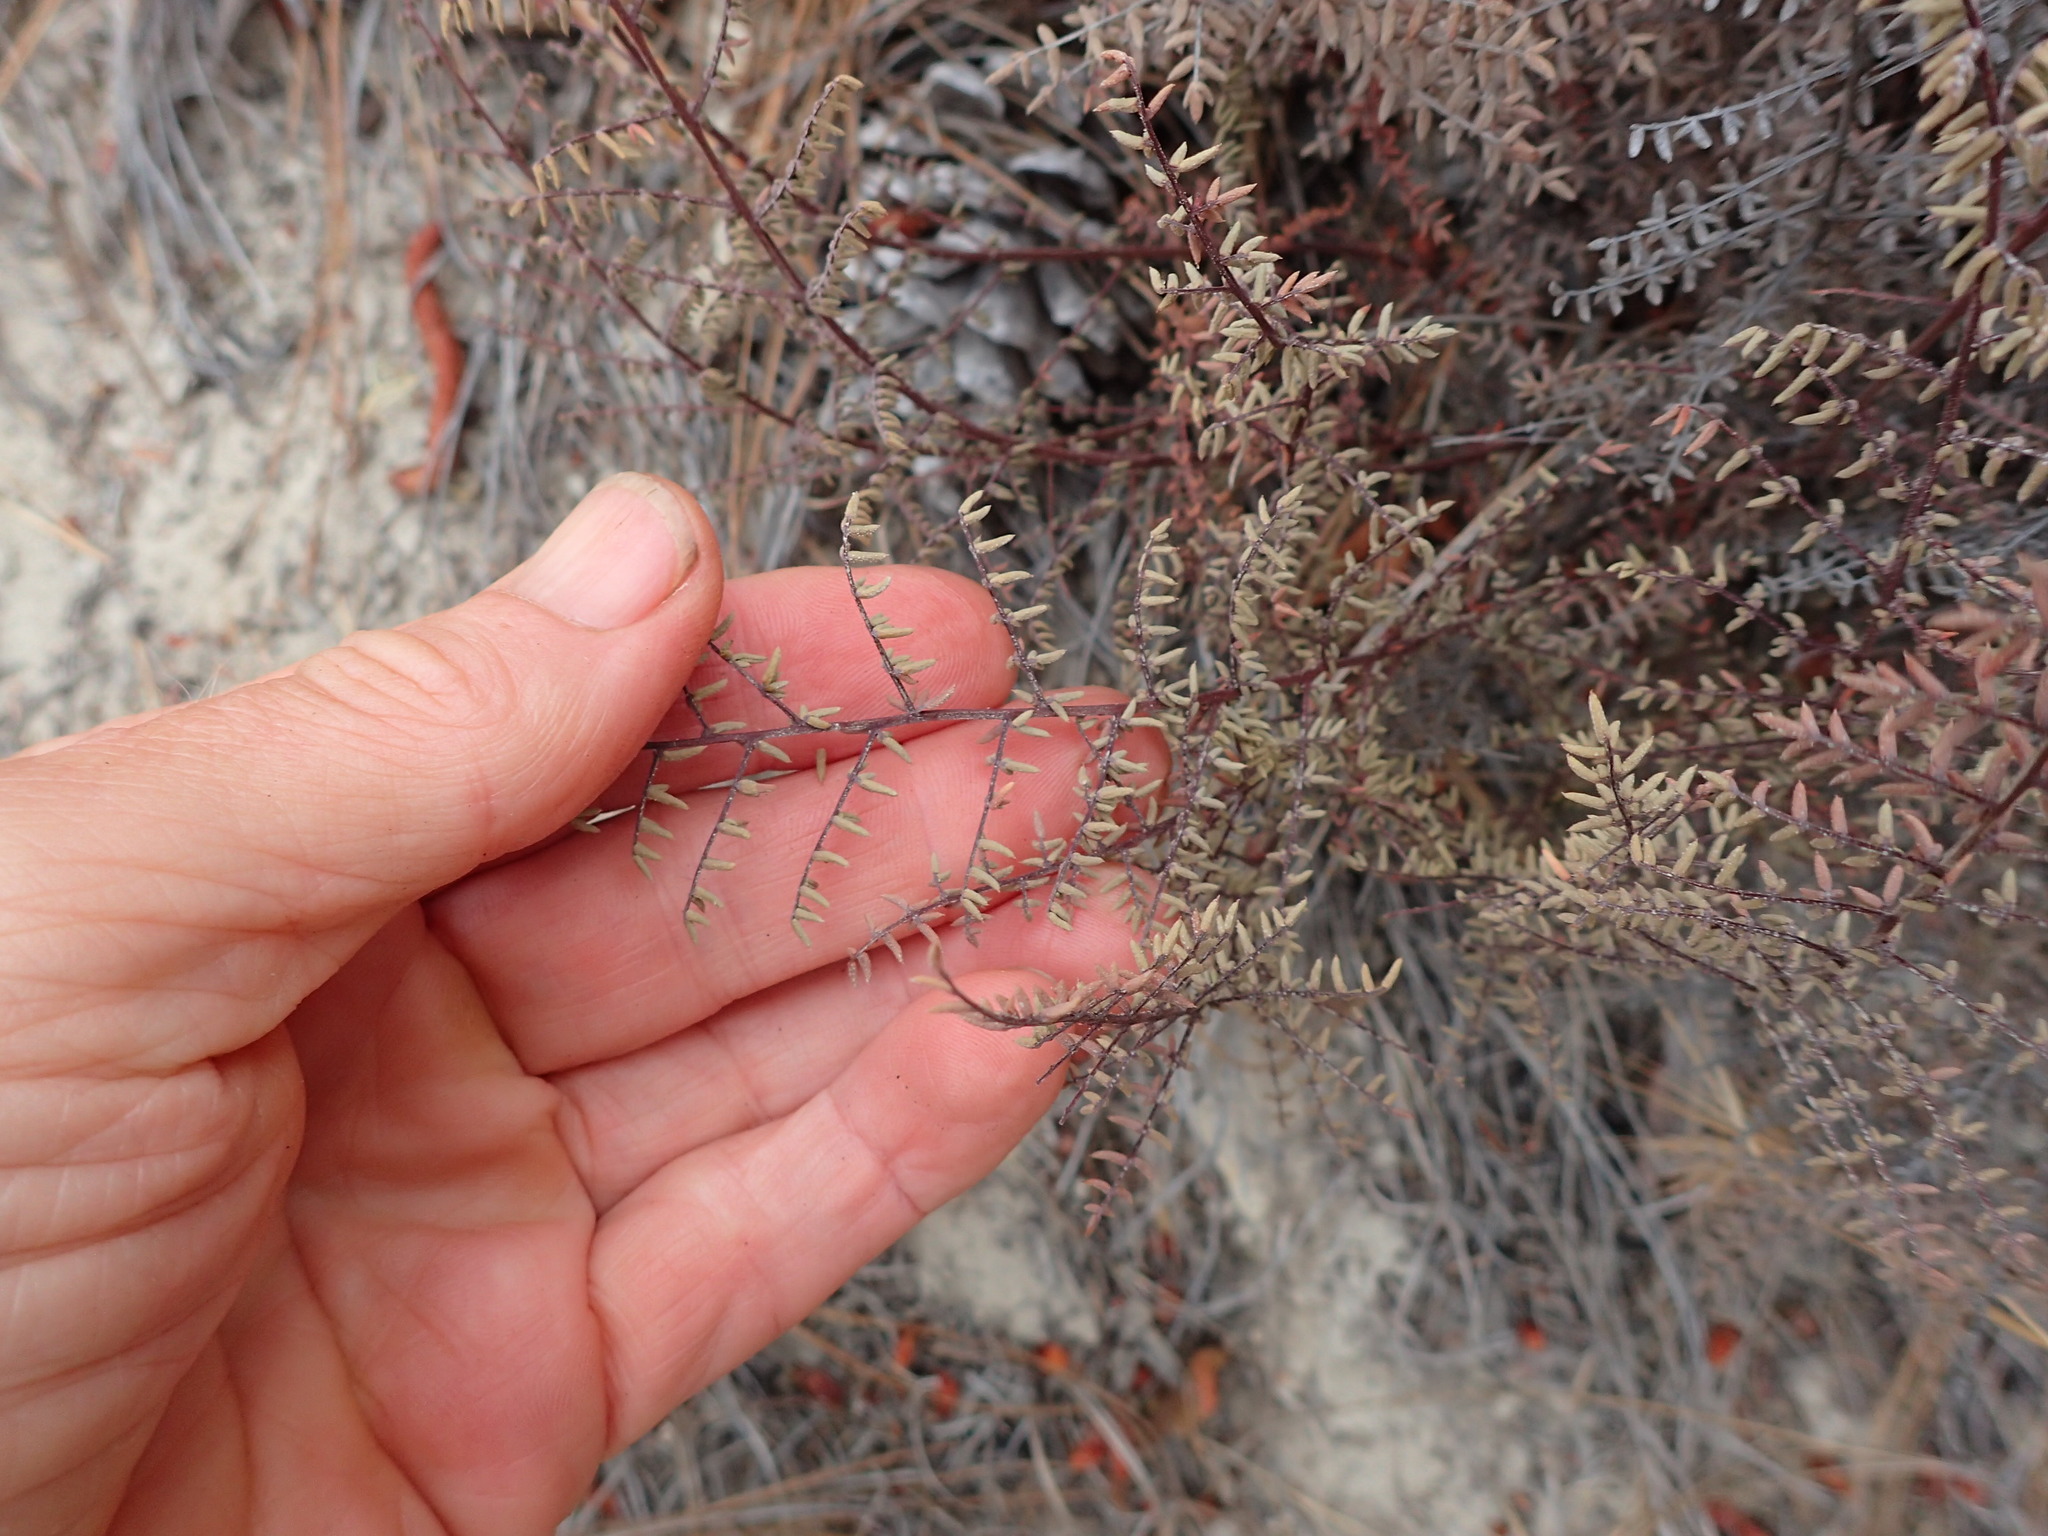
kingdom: Plantae
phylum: Tracheophyta
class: Polypodiopsida
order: Polypodiales
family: Pteridaceae
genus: Pellaea
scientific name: Pellaea mucronata
